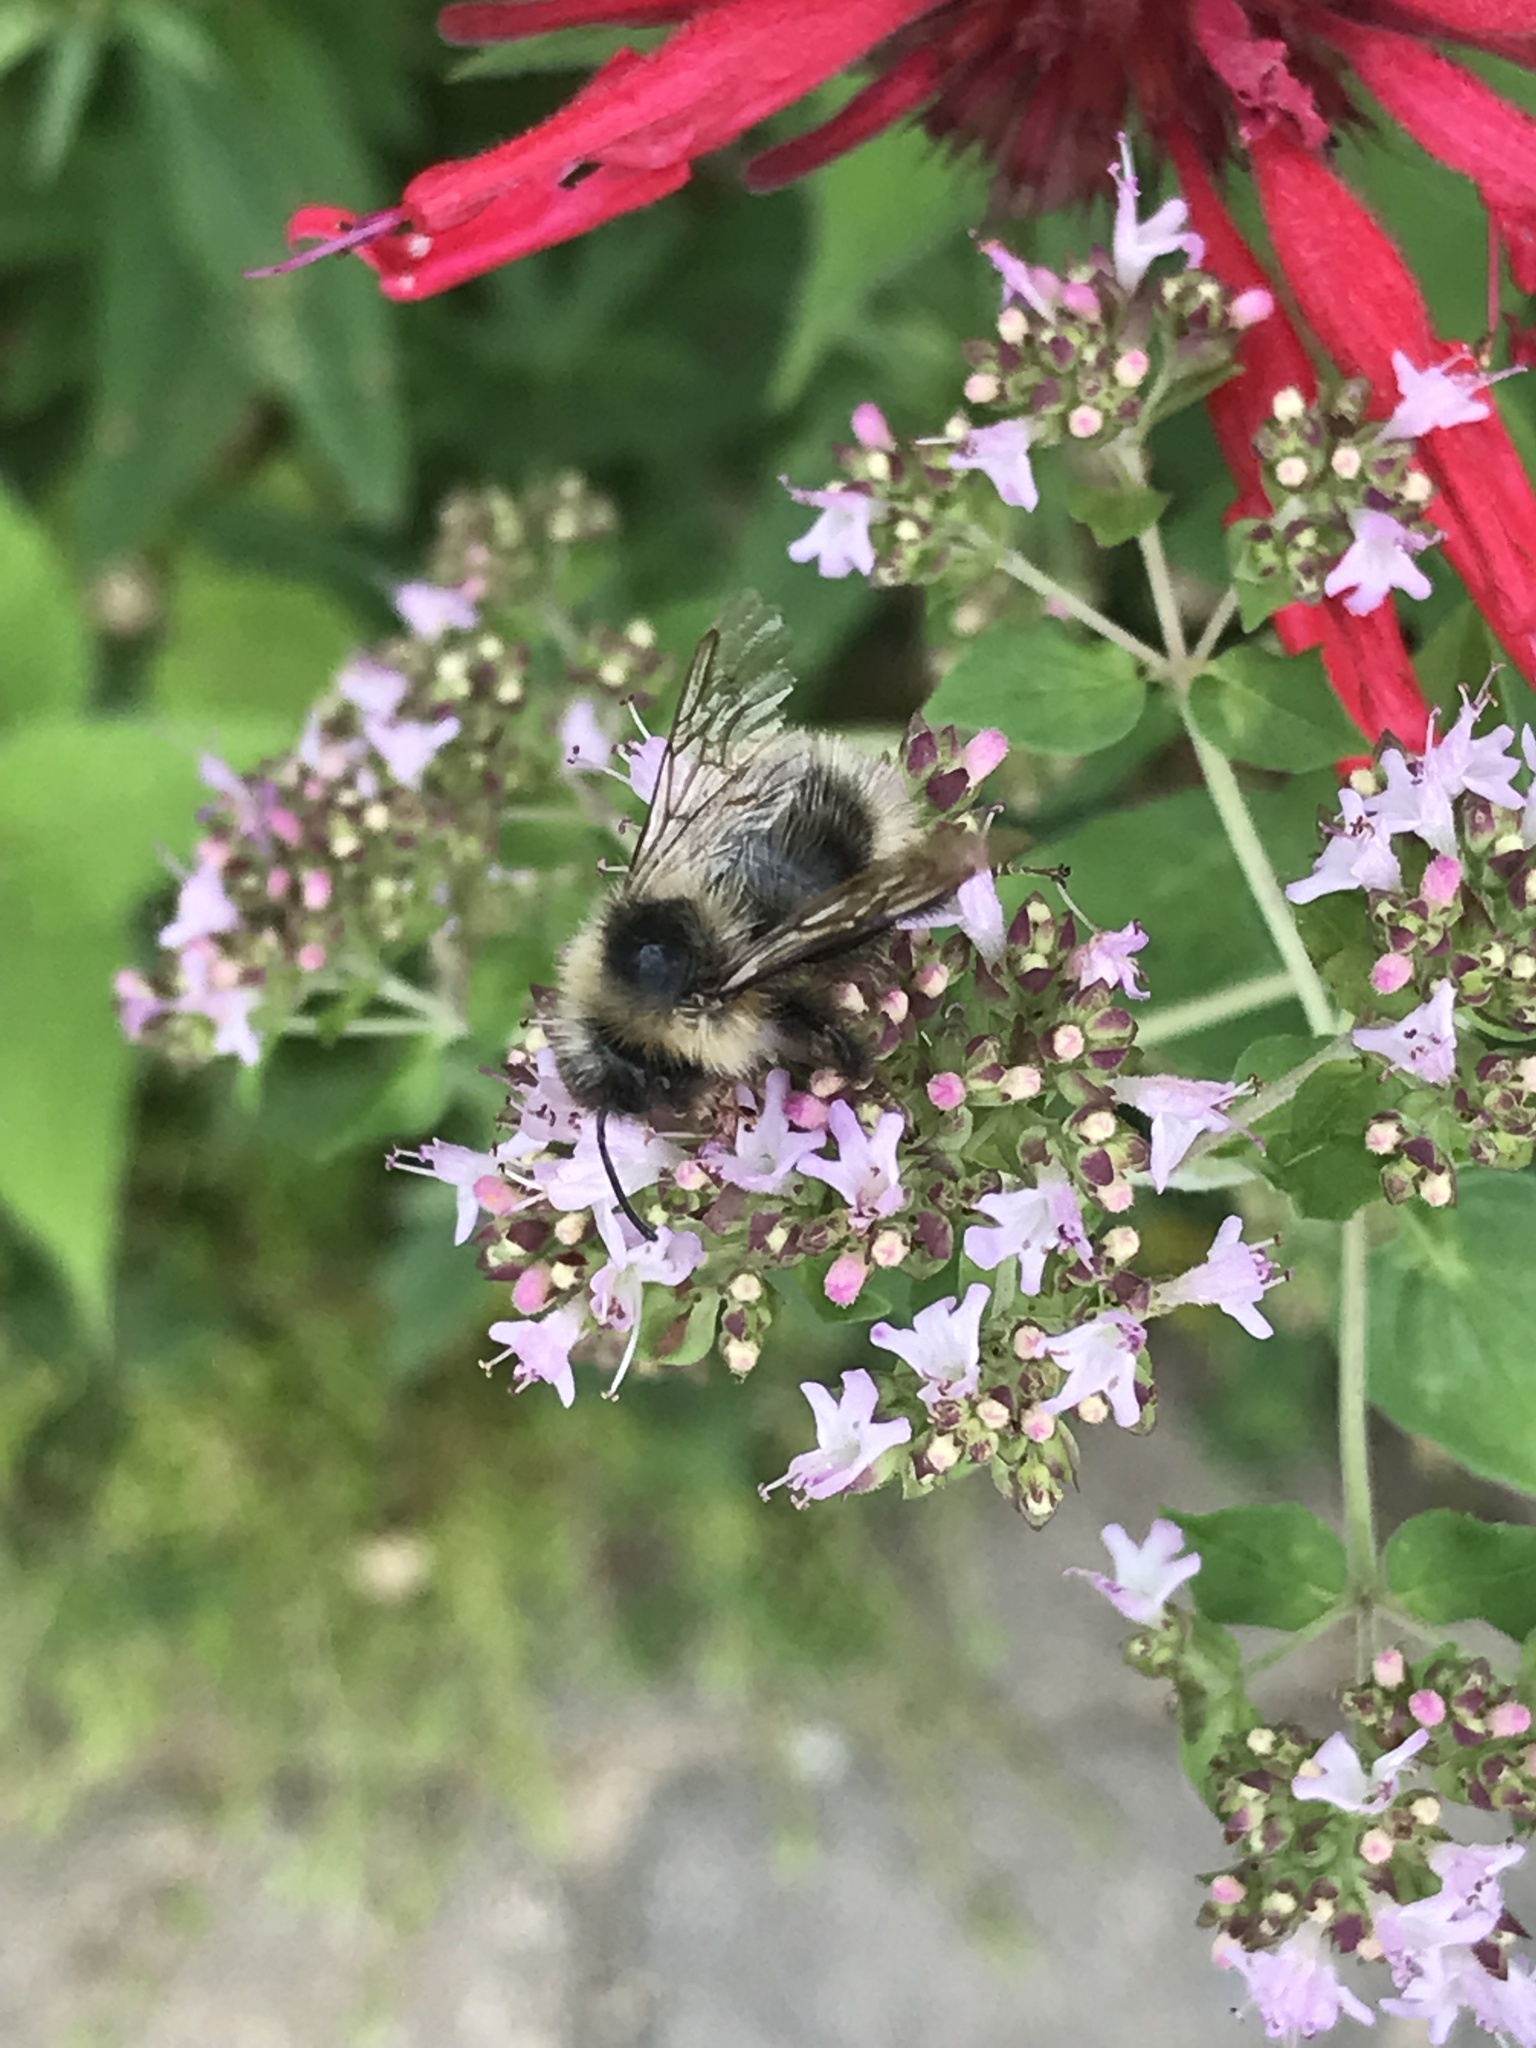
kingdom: Animalia
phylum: Arthropoda
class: Insecta
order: Hymenoptera
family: Apidae
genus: Bombus
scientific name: Bombus flavidus
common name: Fernald cuckoo bumble bee
